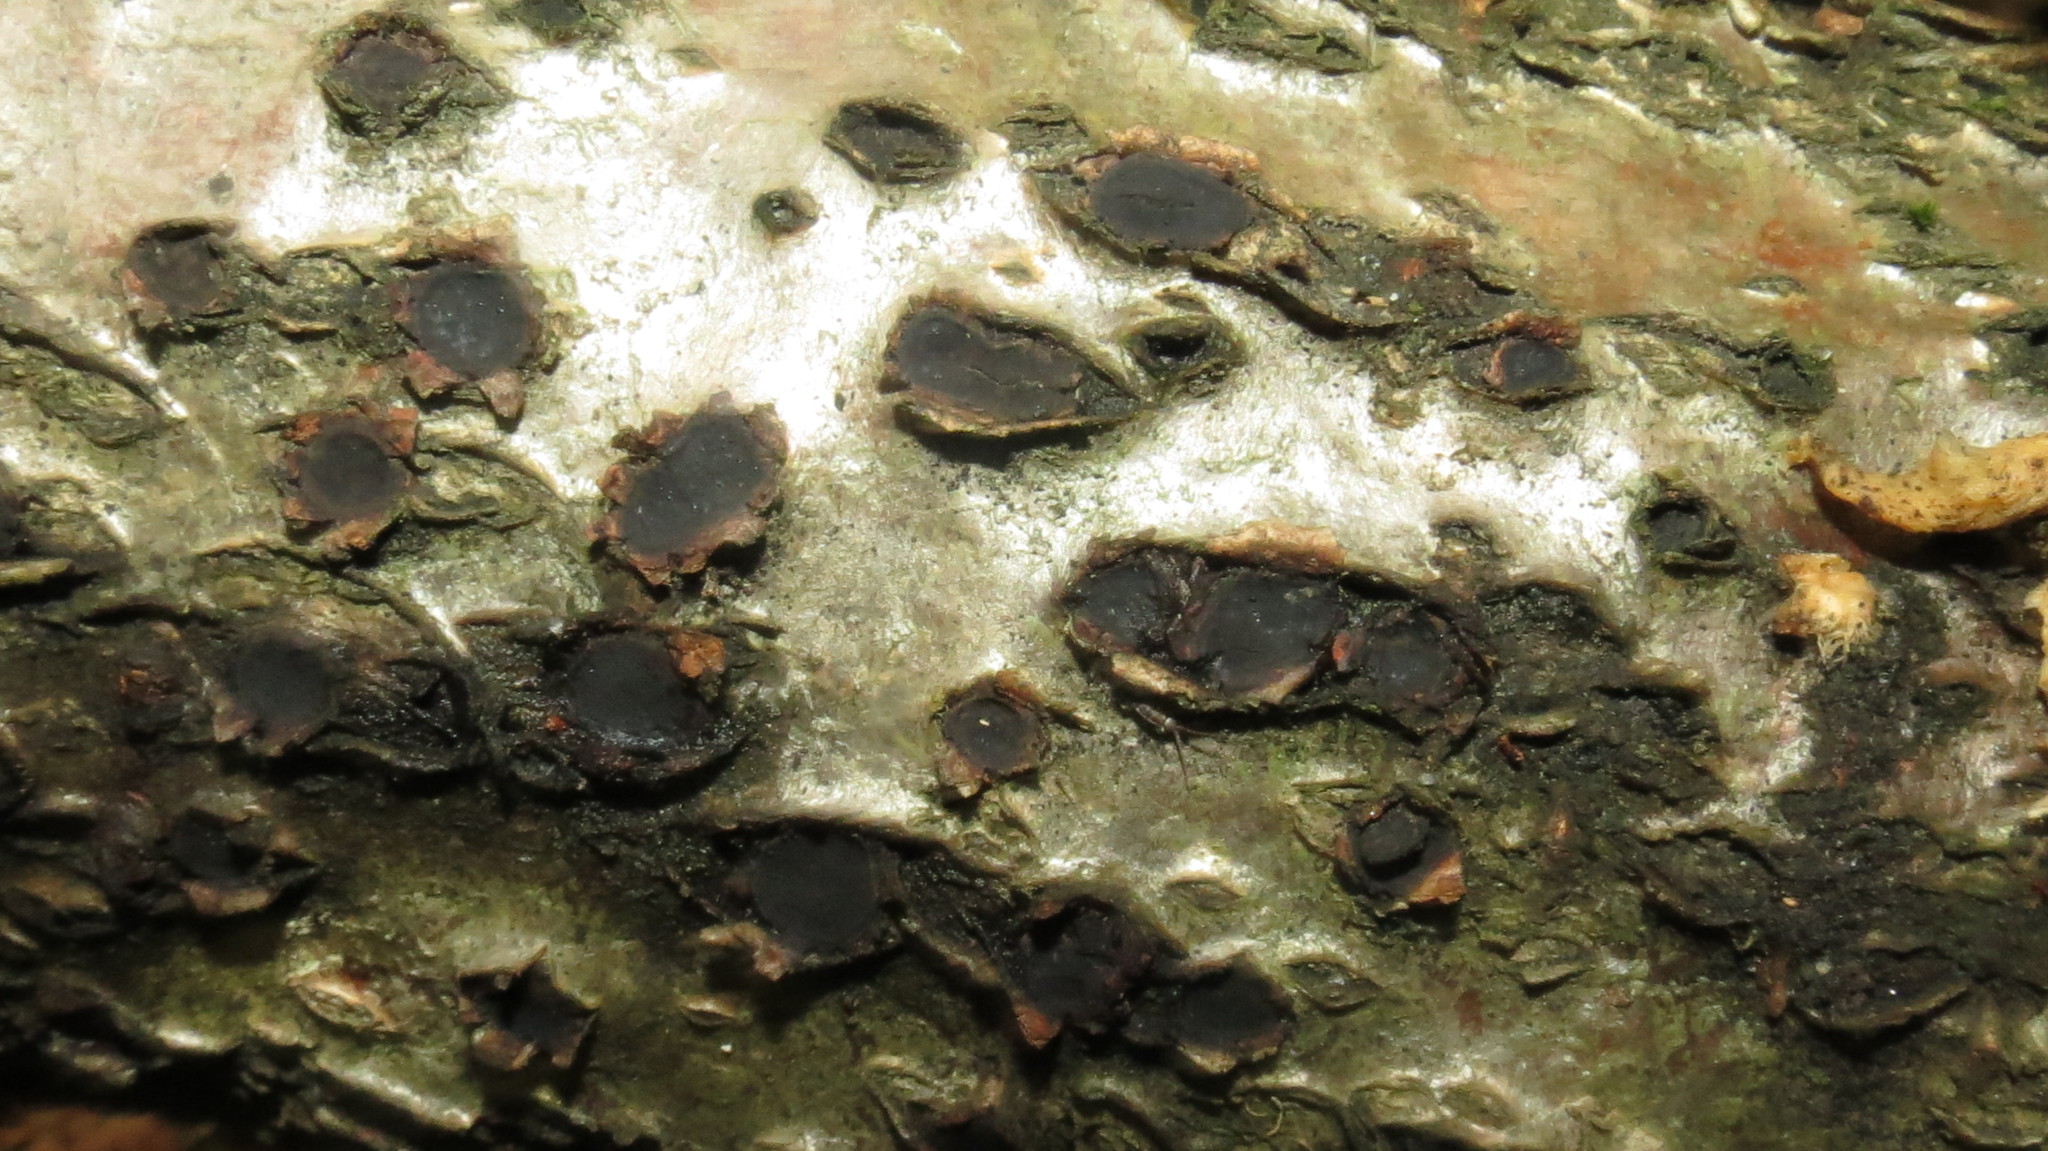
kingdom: Fungi
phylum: Ascomycota
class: Sordariomycetes
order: Xylariales
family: Graphostromataceae
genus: Biscogniauxia
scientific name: Biscogniauxia repanda
